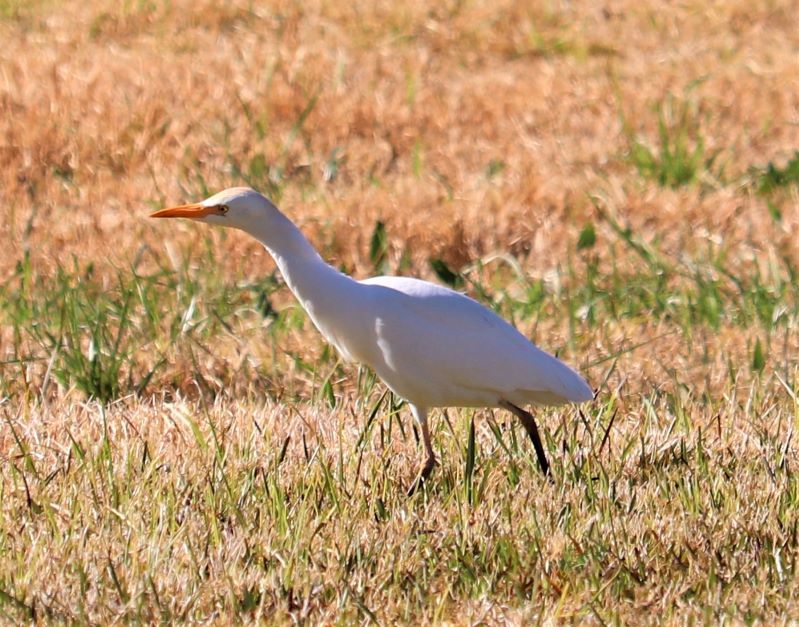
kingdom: Animalia
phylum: Chordata
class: Aves
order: Pelecaniformes
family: Ardeidae
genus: Bubulcus
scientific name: Bubulcus ibis
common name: Cattle egret
